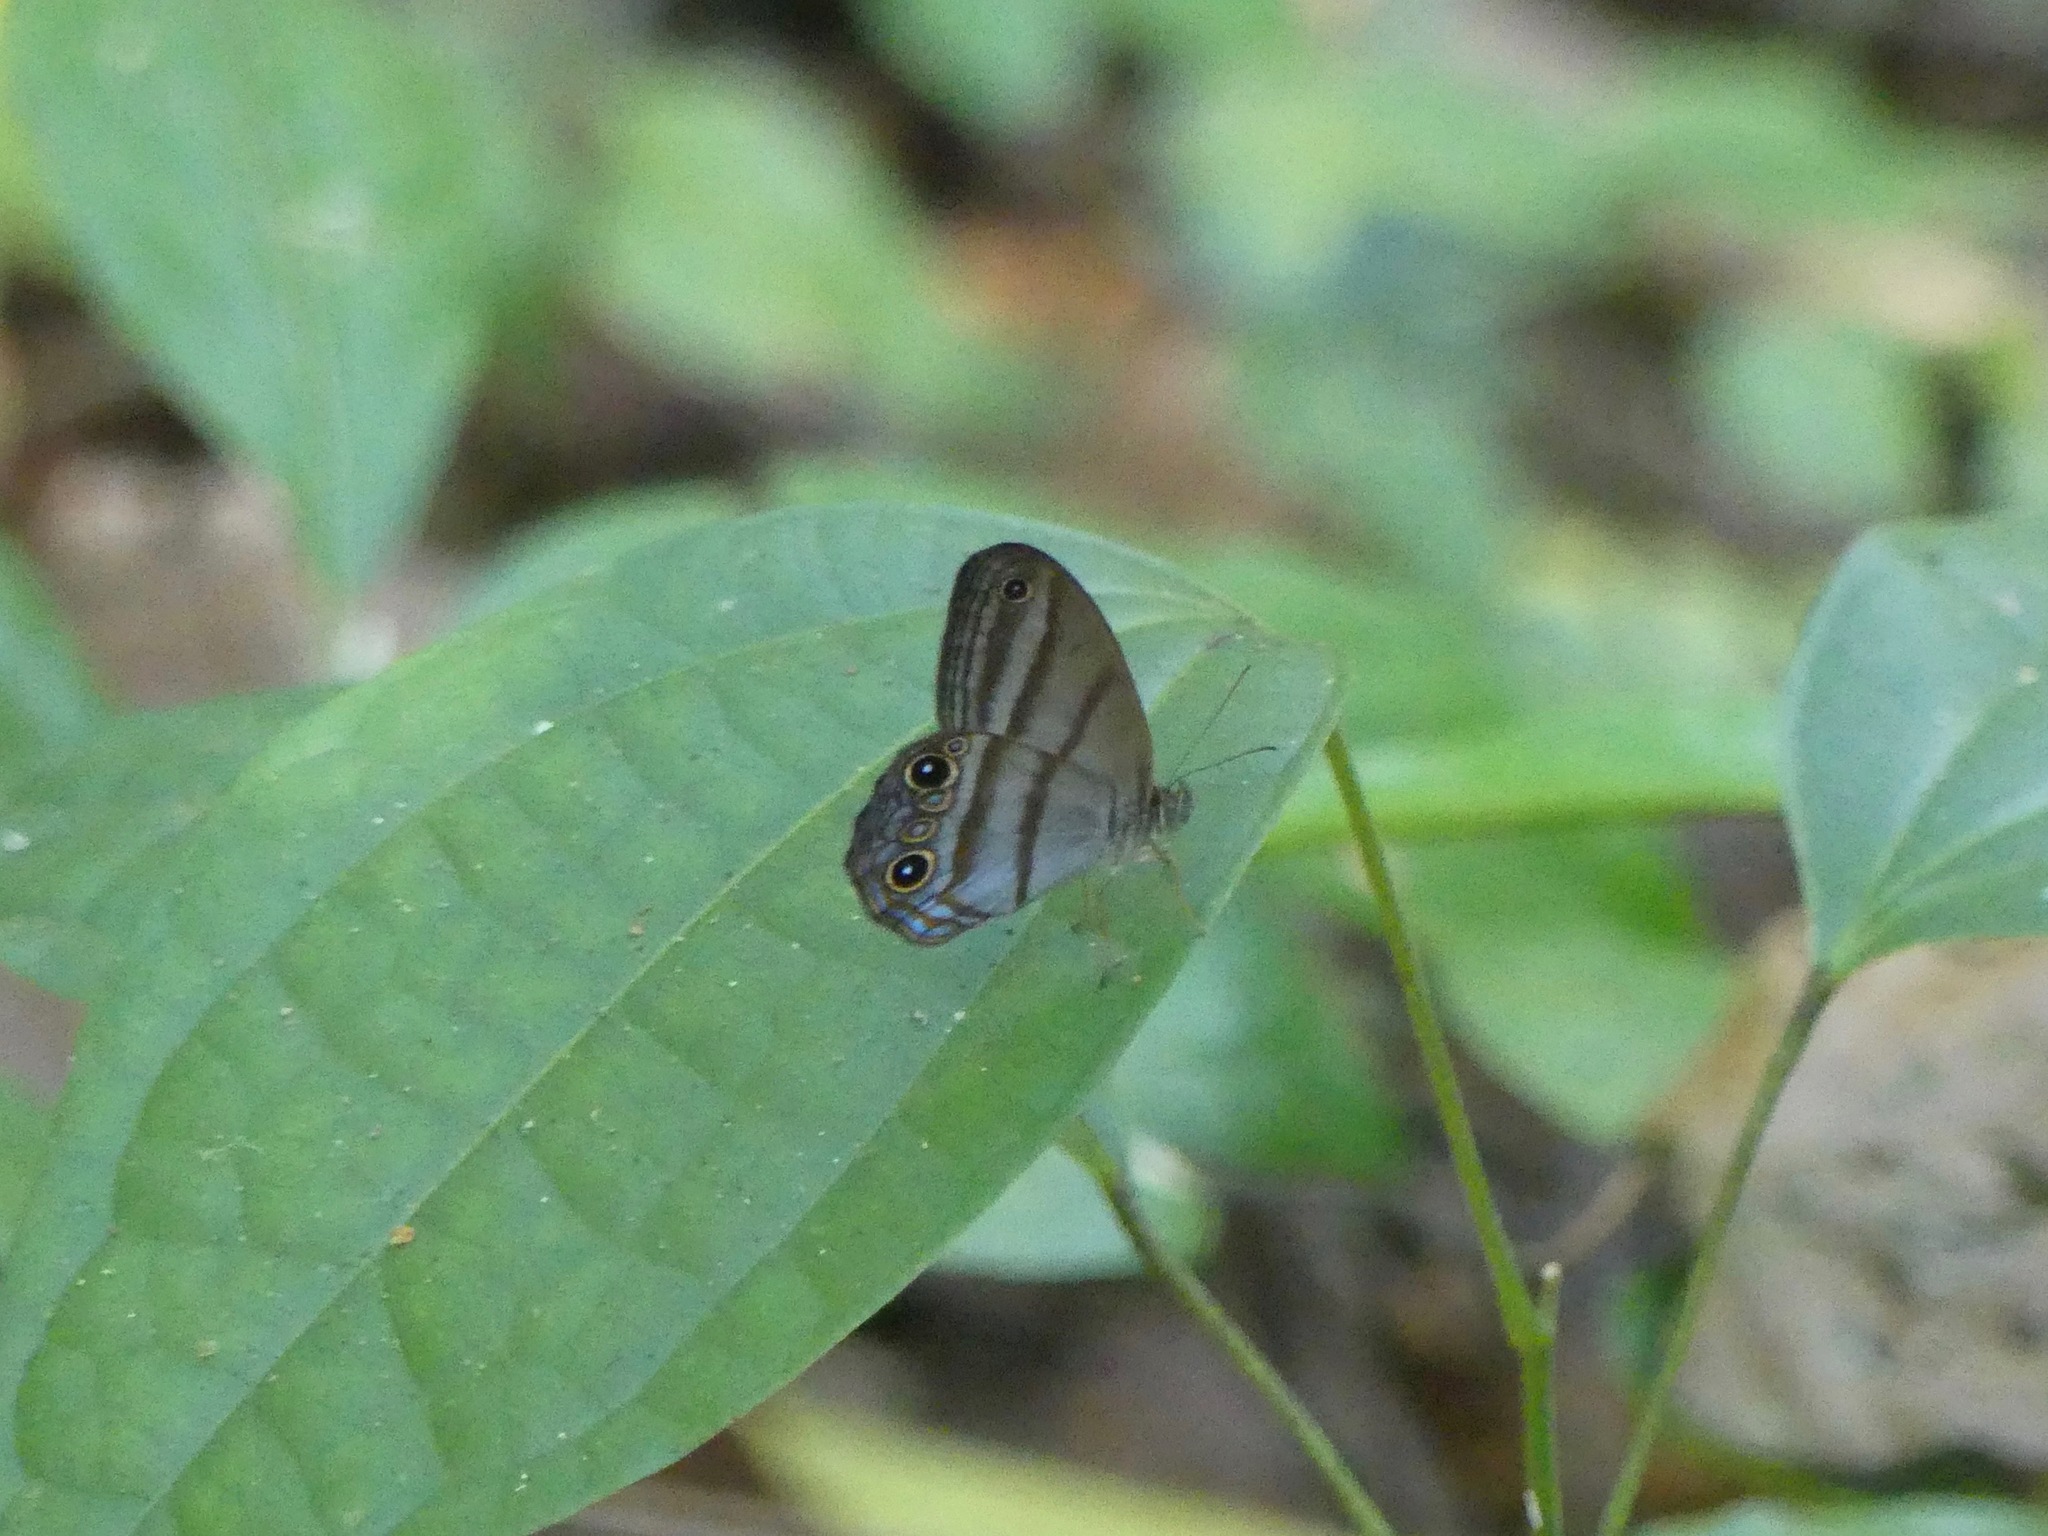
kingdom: Animalia
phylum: Arthropoda
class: Insecta
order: Lepidoptera
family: Nymphalidae
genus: Amiga
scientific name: Amiga arnaca
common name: Blue-topped satyr
